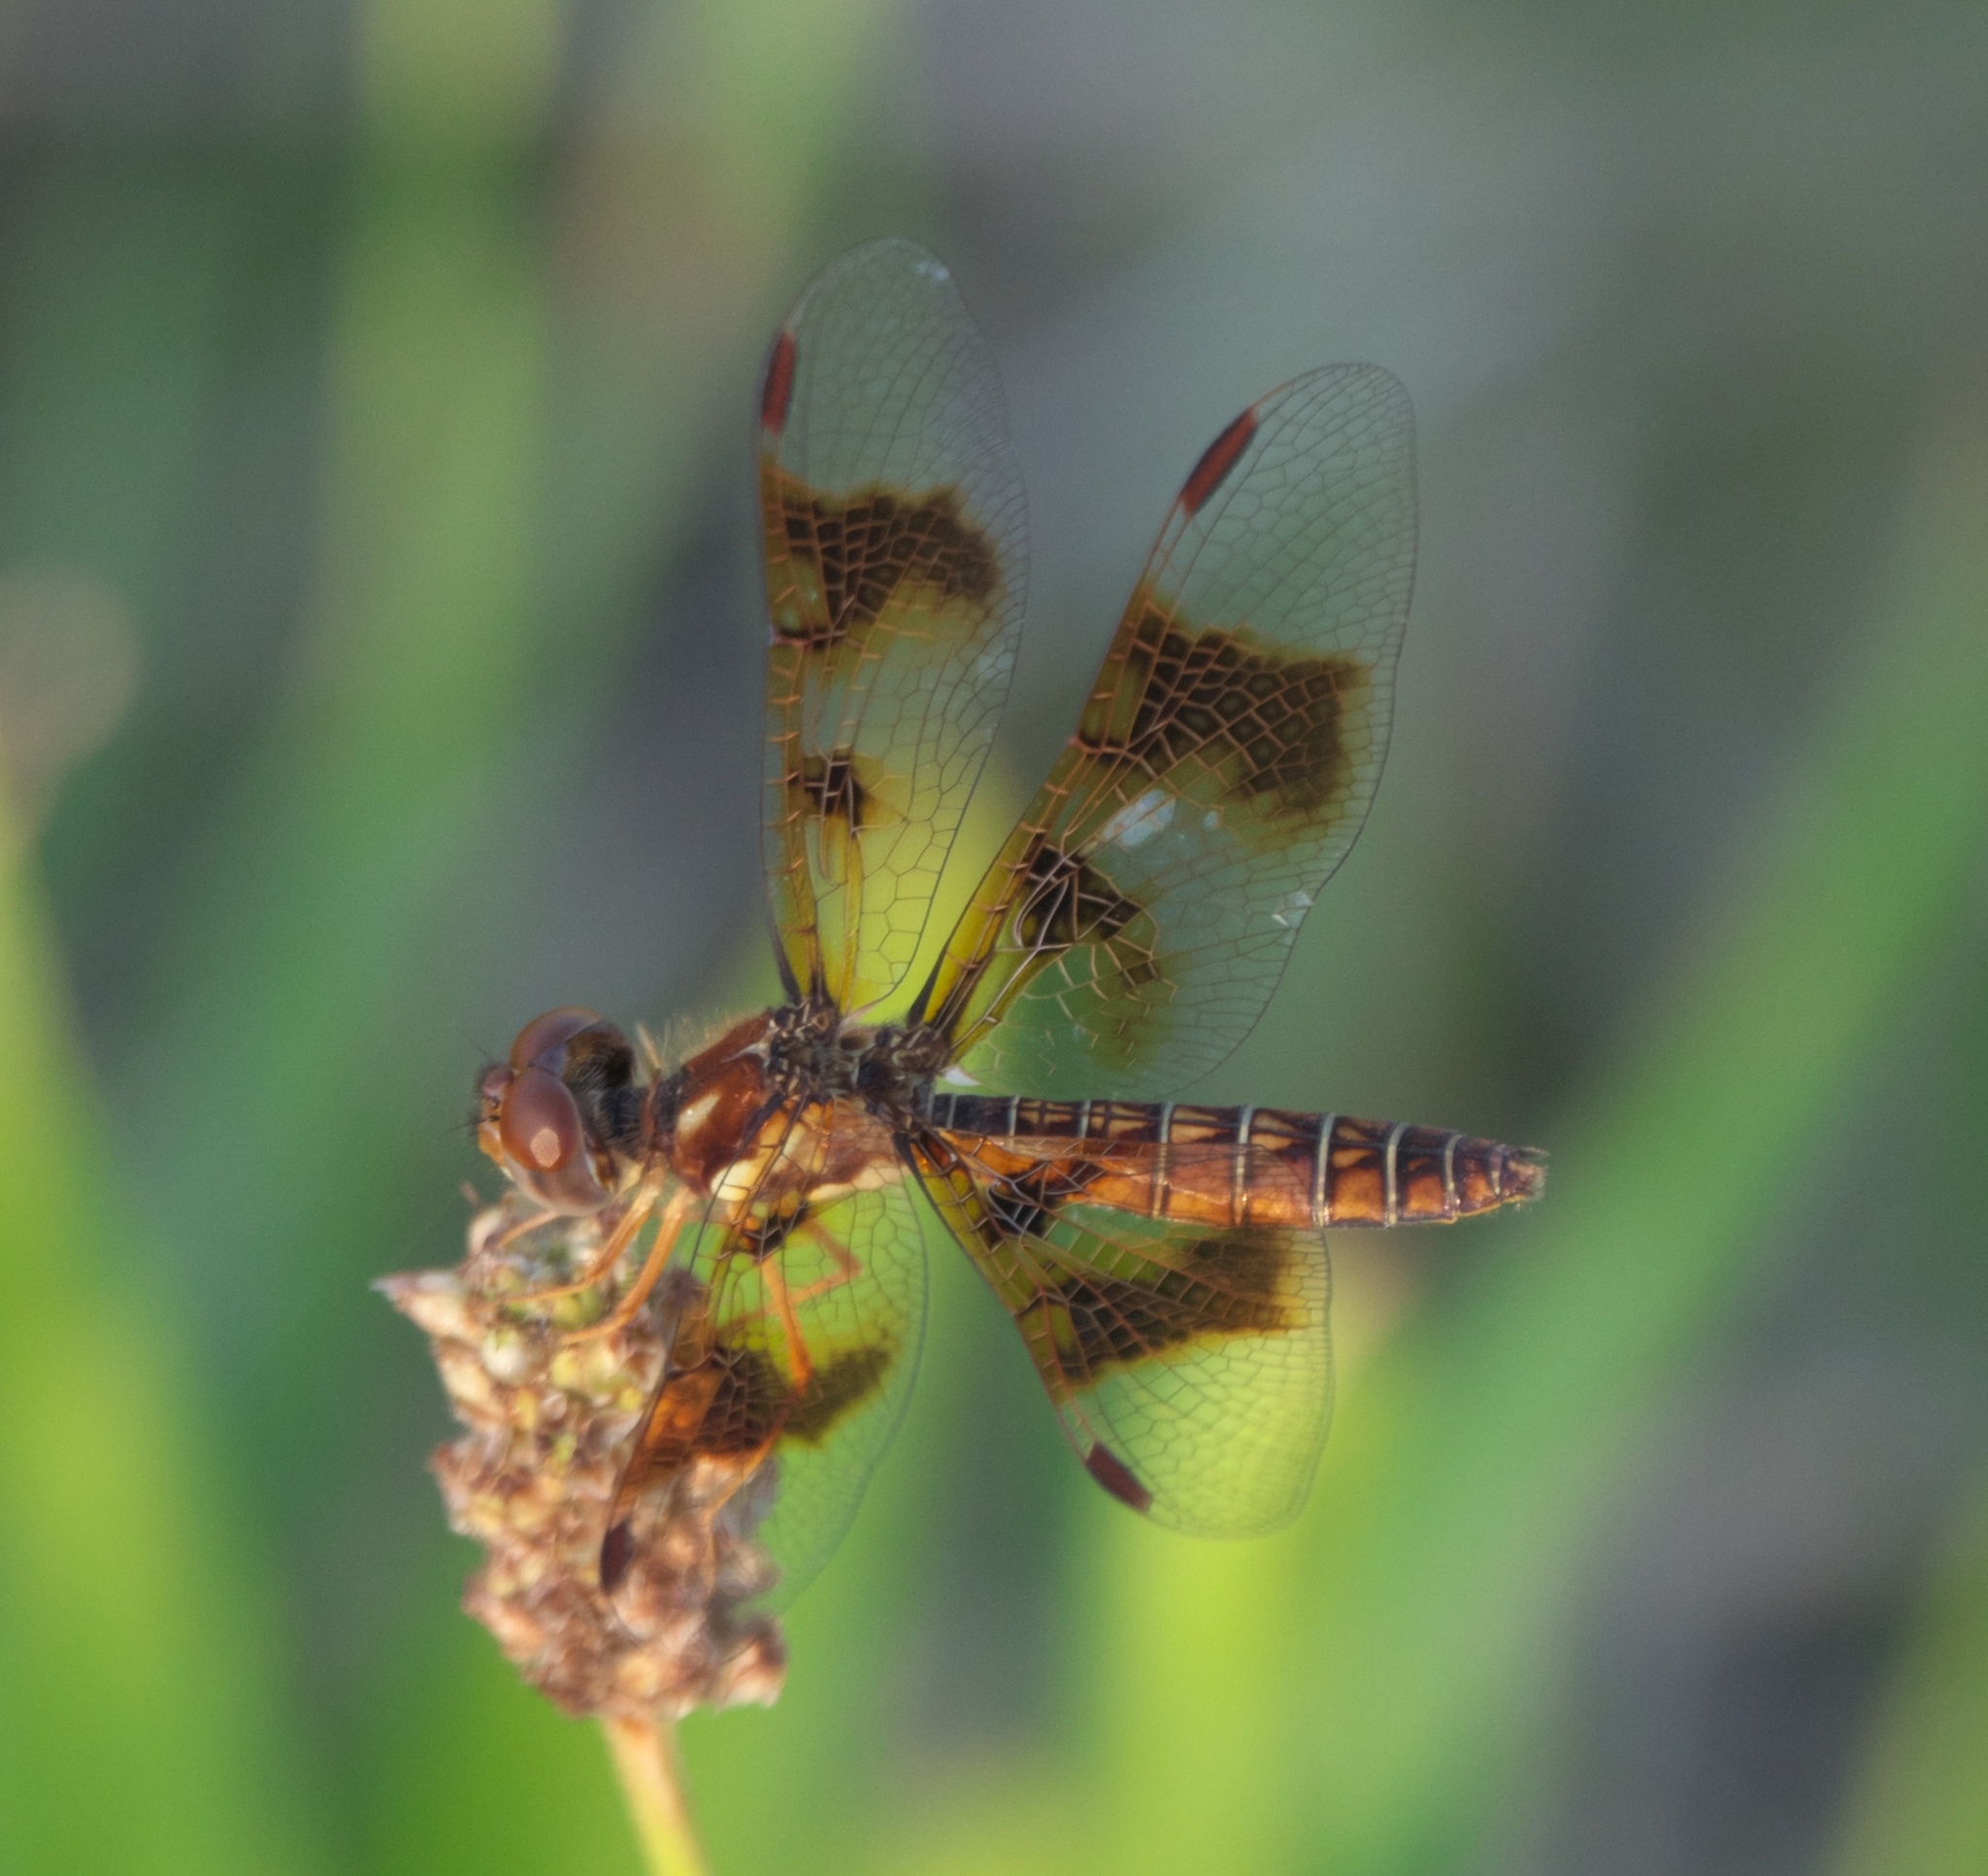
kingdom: Animalia
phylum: Arthropoda
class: Insecta
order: Odonata
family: Libellulidae
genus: Perithemis
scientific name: Perithemis tenera
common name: Eastern amberwing
